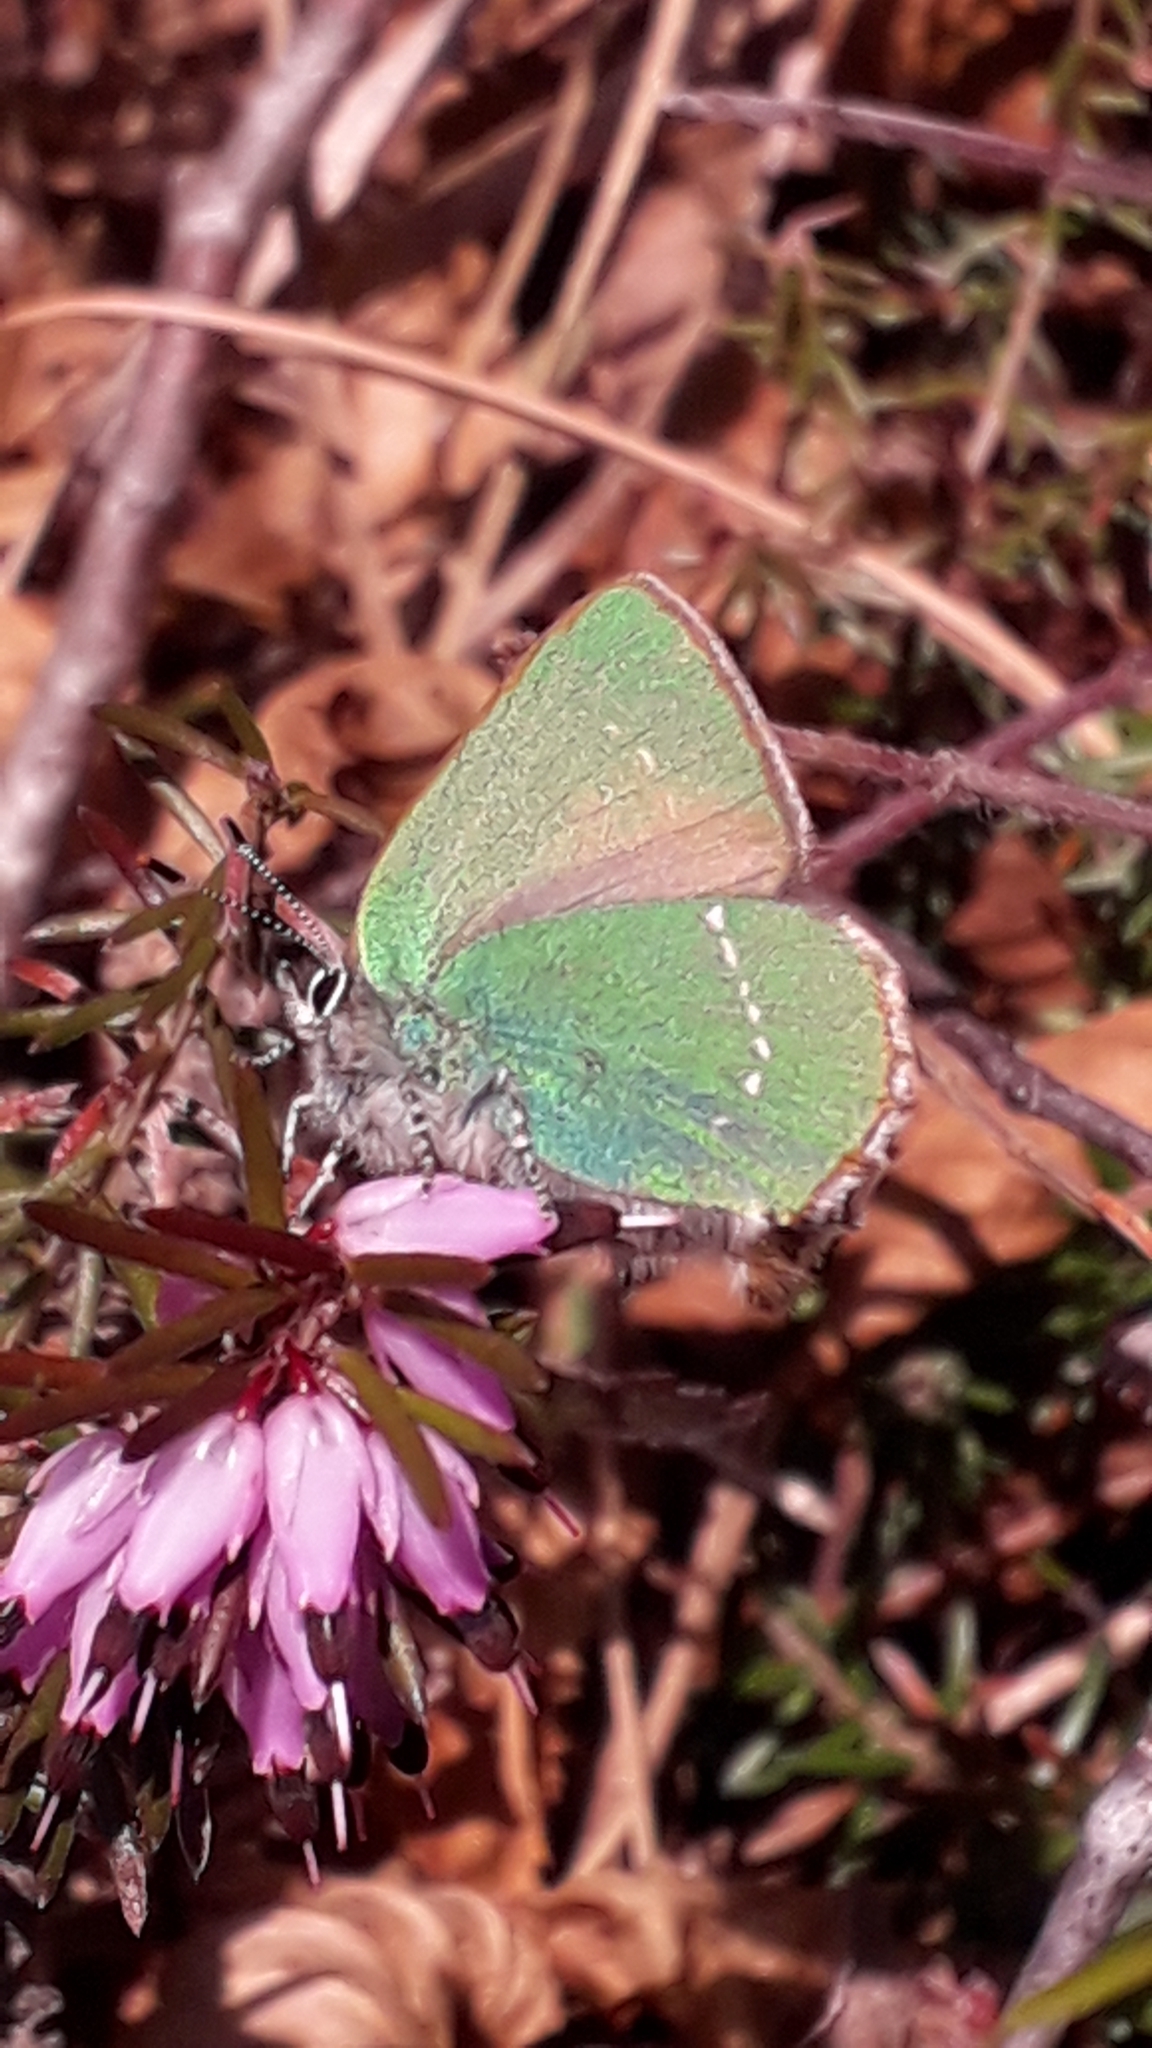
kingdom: Animalia
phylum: Arthropoda
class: Insecta
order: Lepidoptera
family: Lycaenidae
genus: Callophrys
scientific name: Callophrys rubi
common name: Green hairstreak
